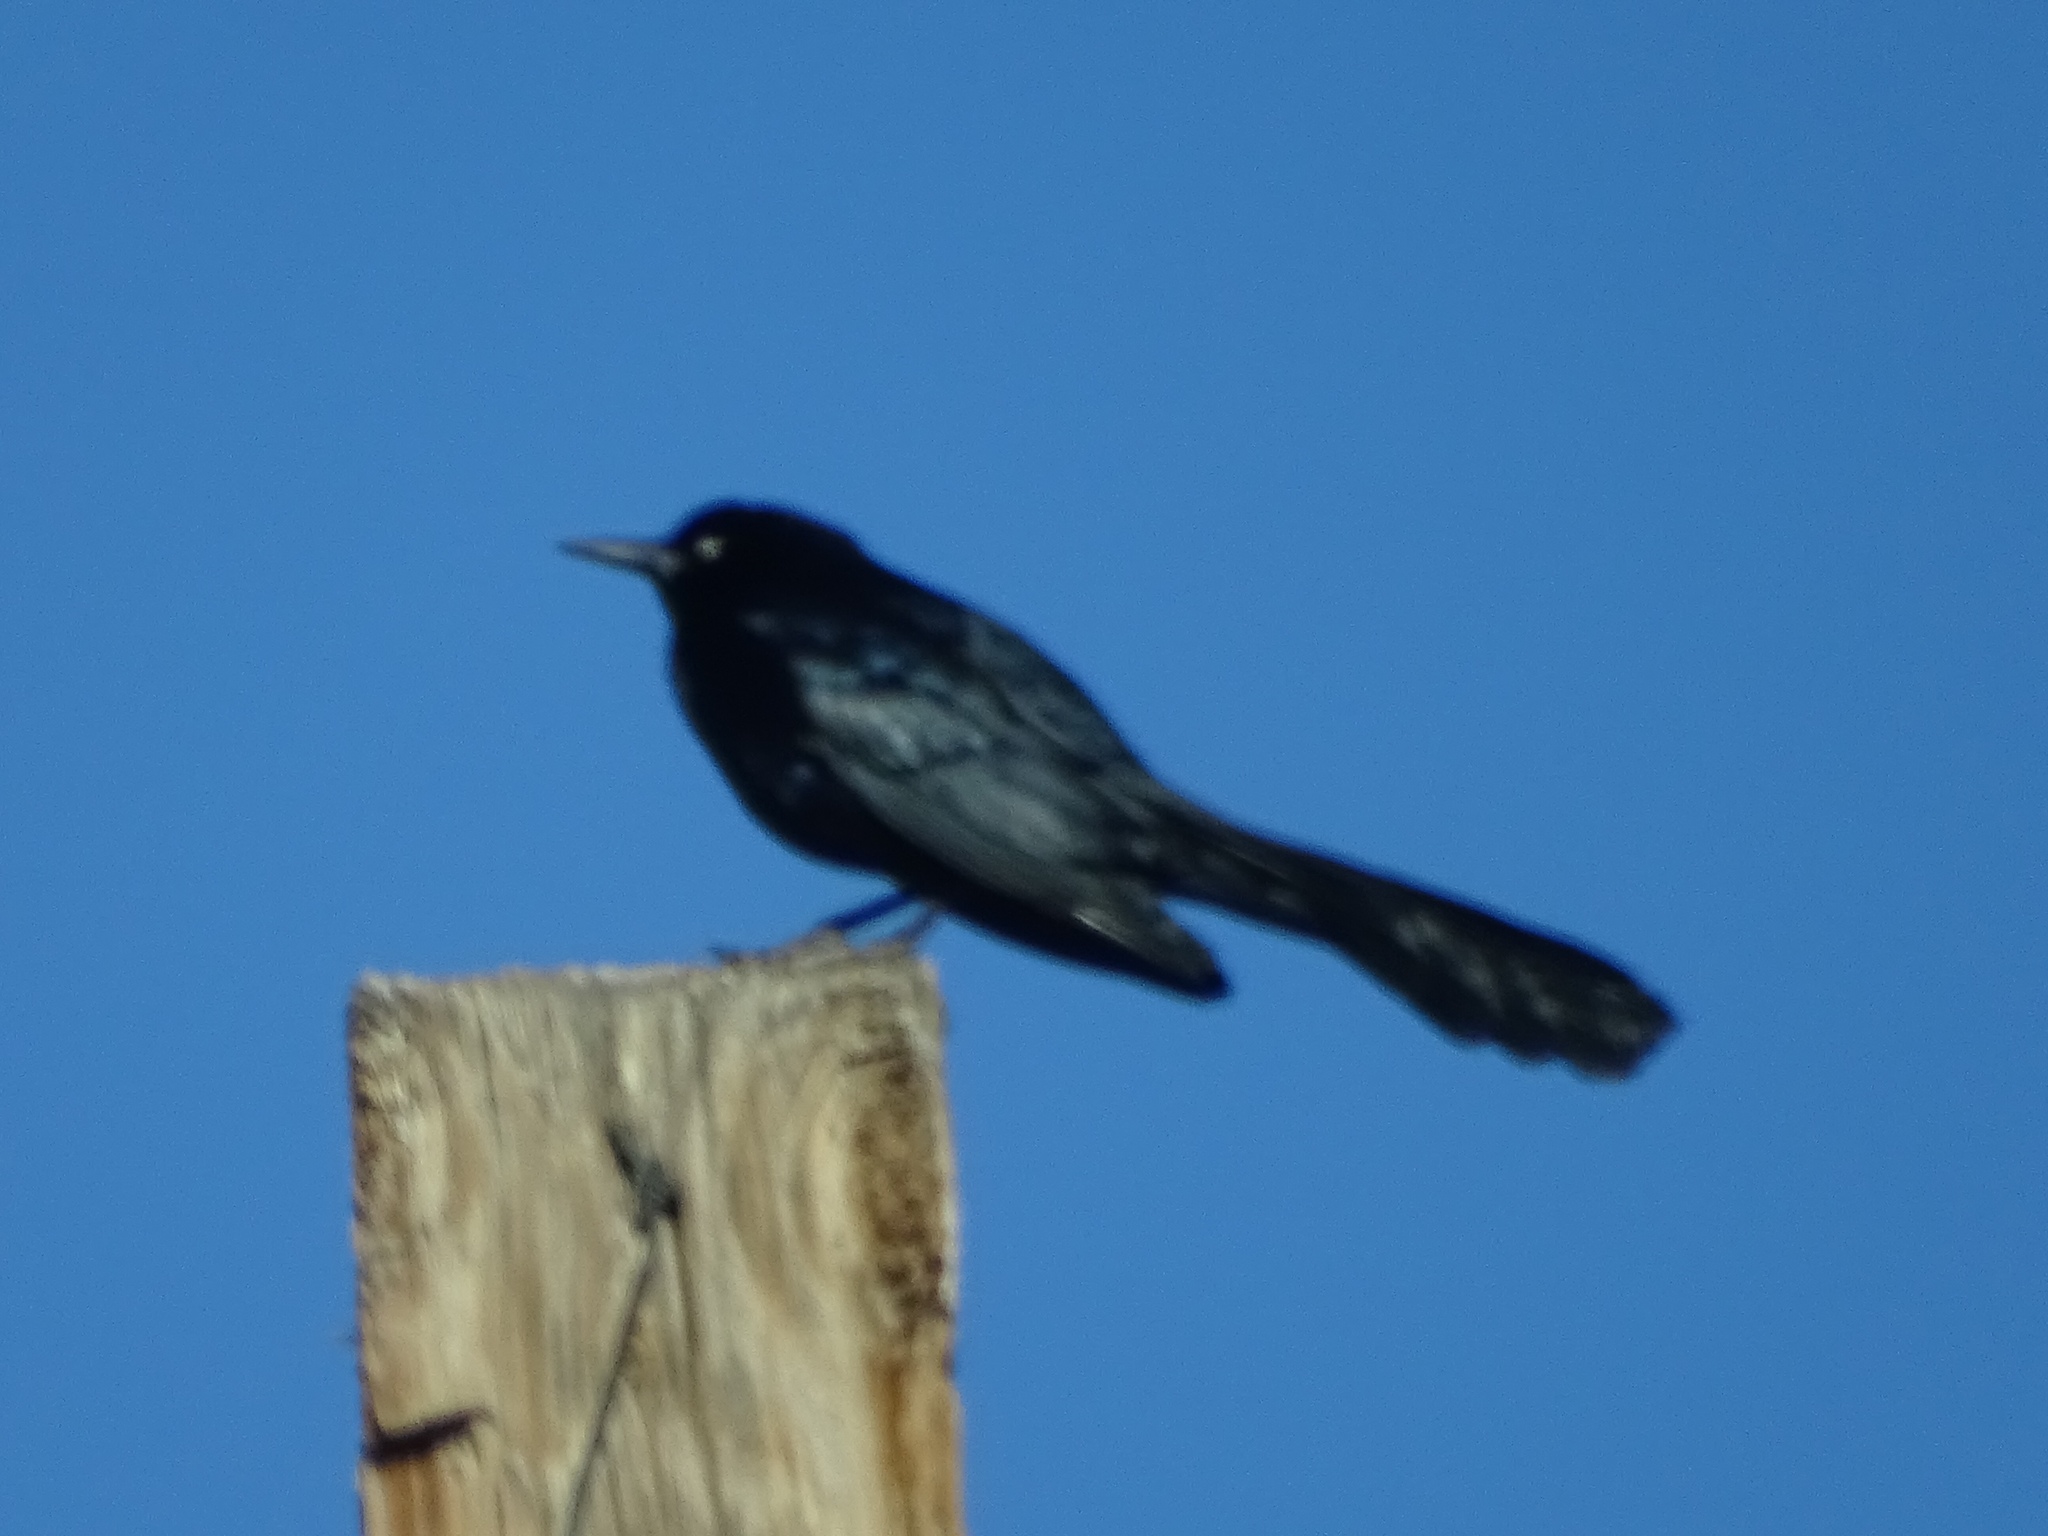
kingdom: Animalia
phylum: Chordata
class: Aves
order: Passeriformes
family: Icteridae
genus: Quiscalus
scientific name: Quiscalus mexicanus
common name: Great-tailed grackle
